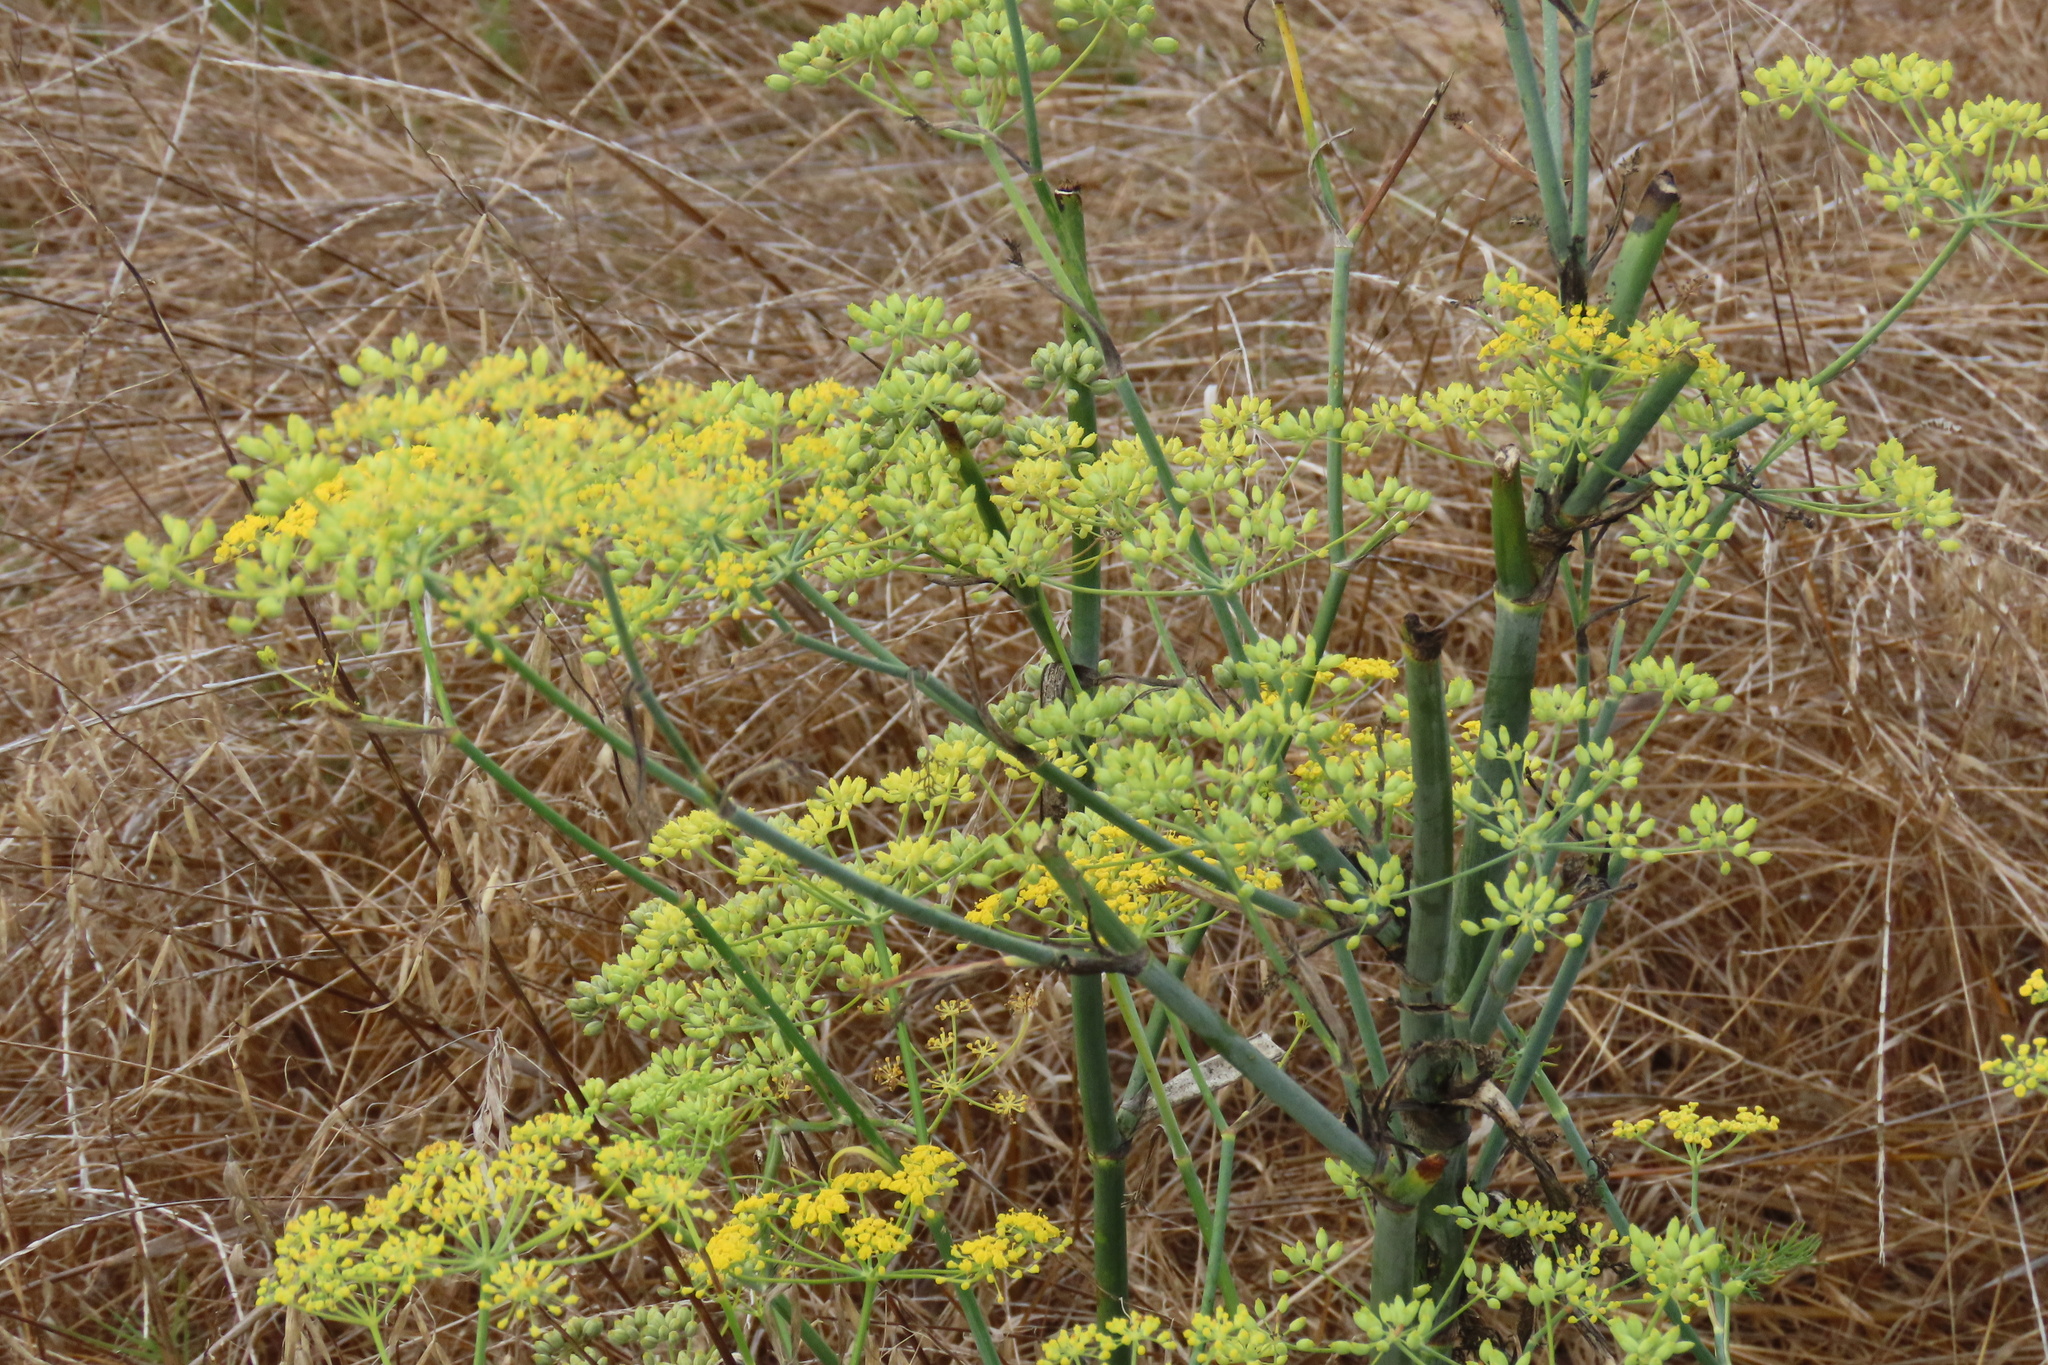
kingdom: Plantae
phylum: Tracheophyta
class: Magnoliopsida
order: Apiales
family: Apiaceae
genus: Foeniculum
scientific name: Foeniculum vulgare
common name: Fennel
